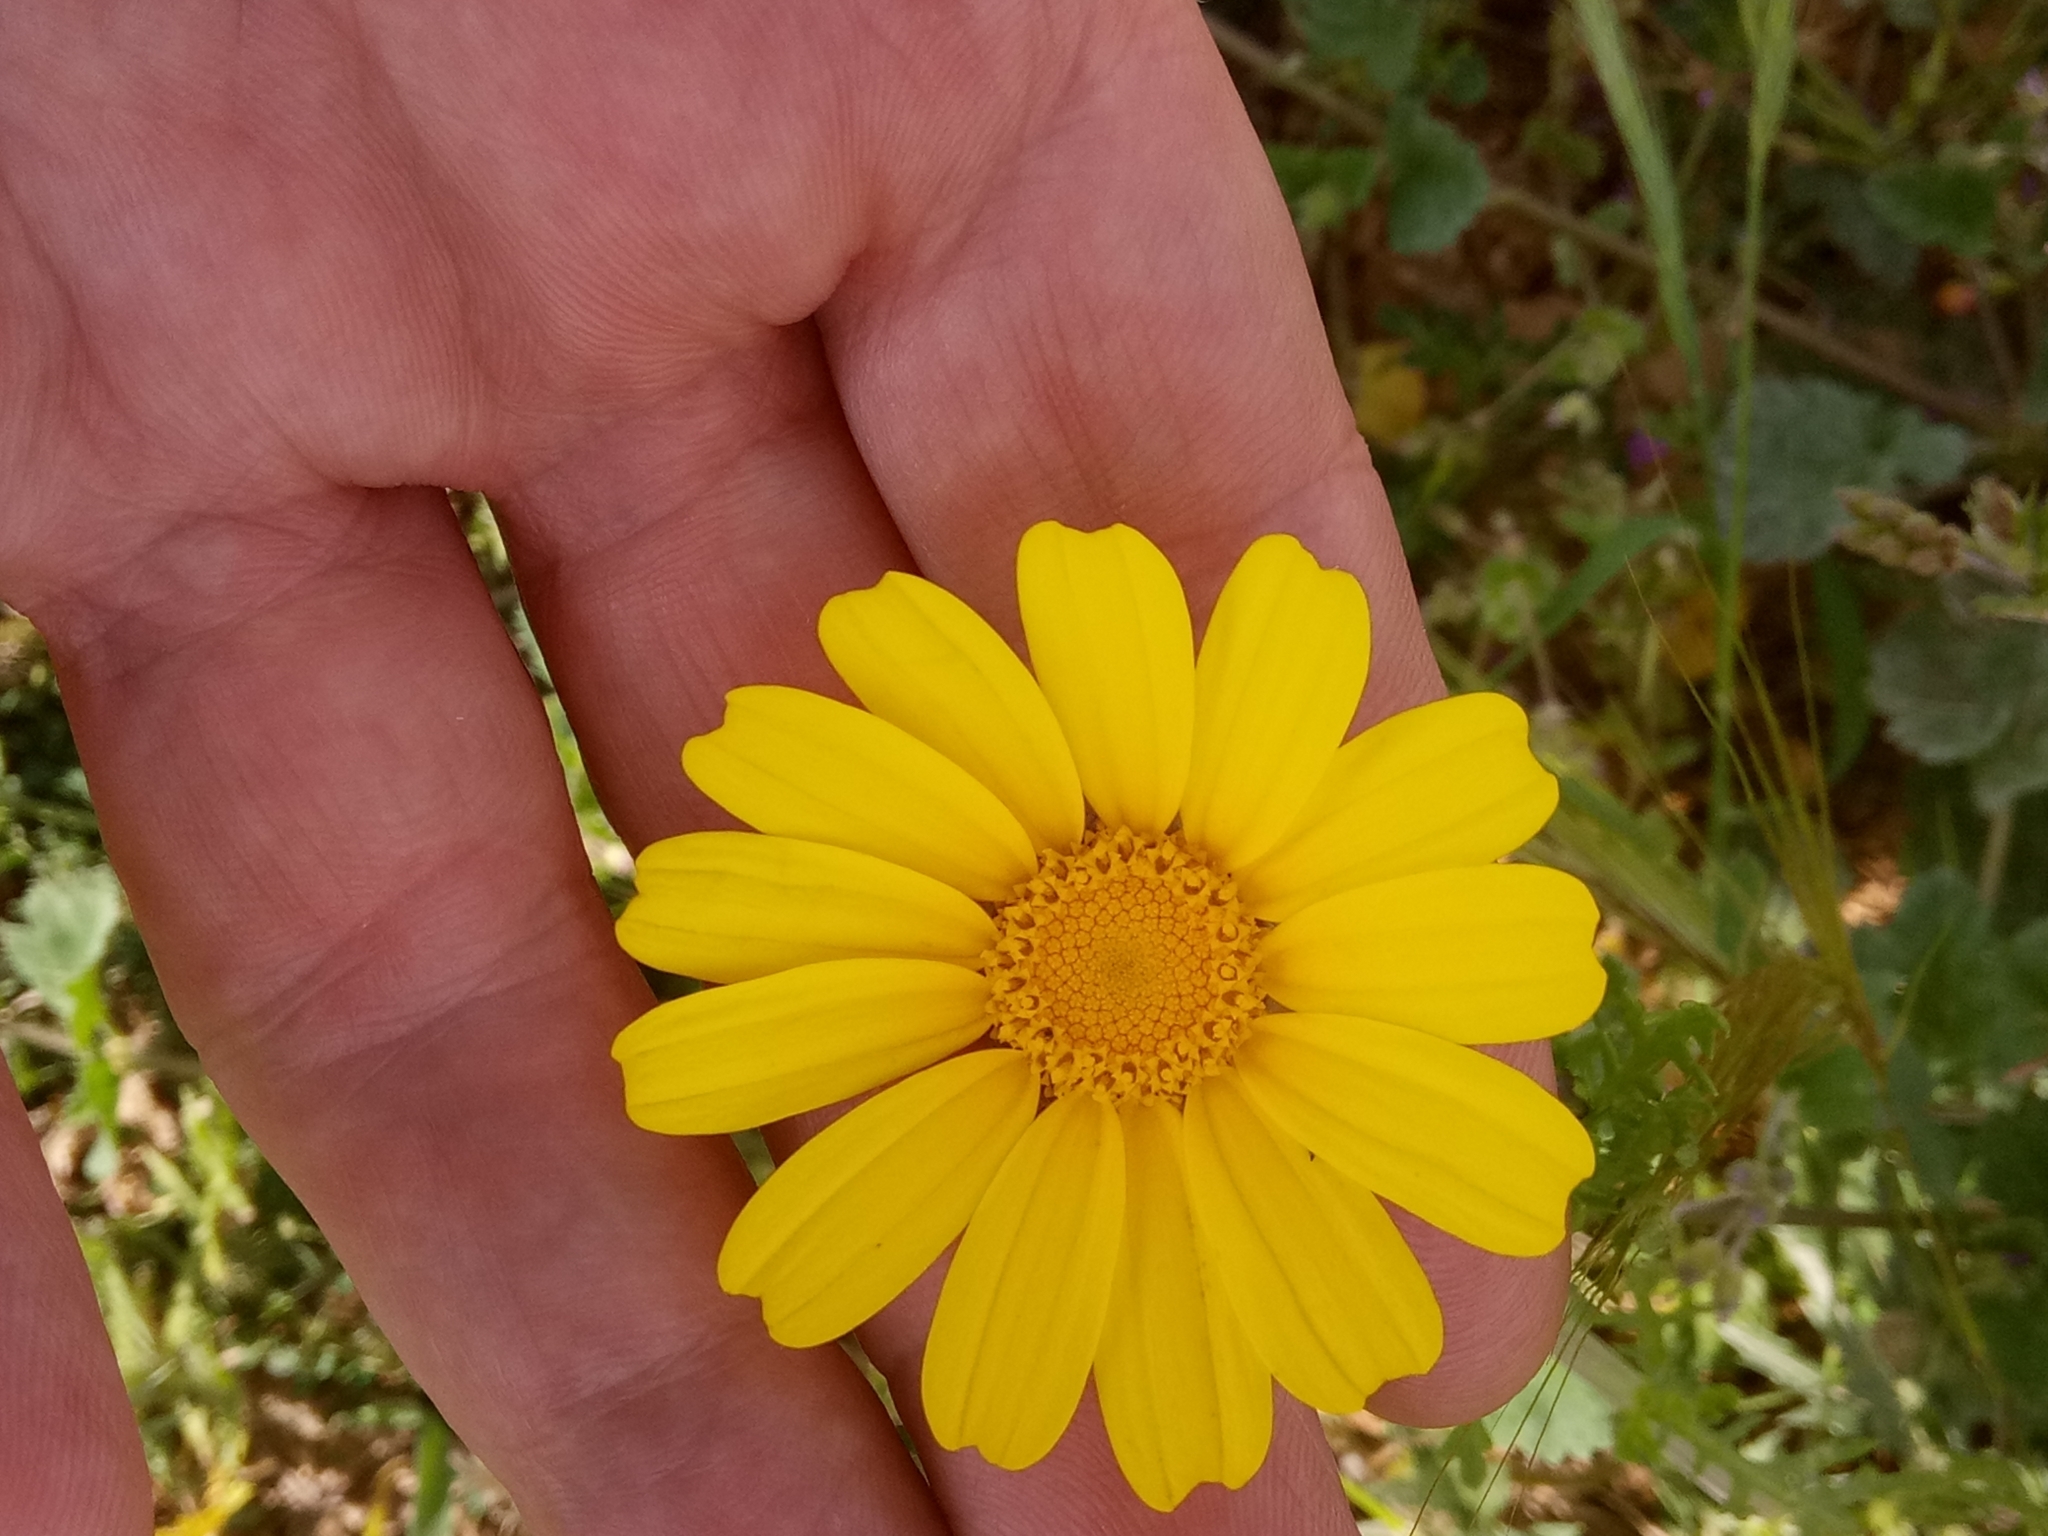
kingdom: Plantae
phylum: Tracheophyta
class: Magnoliopsida
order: Asterales
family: Asteraceae
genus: Glebionis
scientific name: Glebionis coronaria
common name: Crowndaisy
